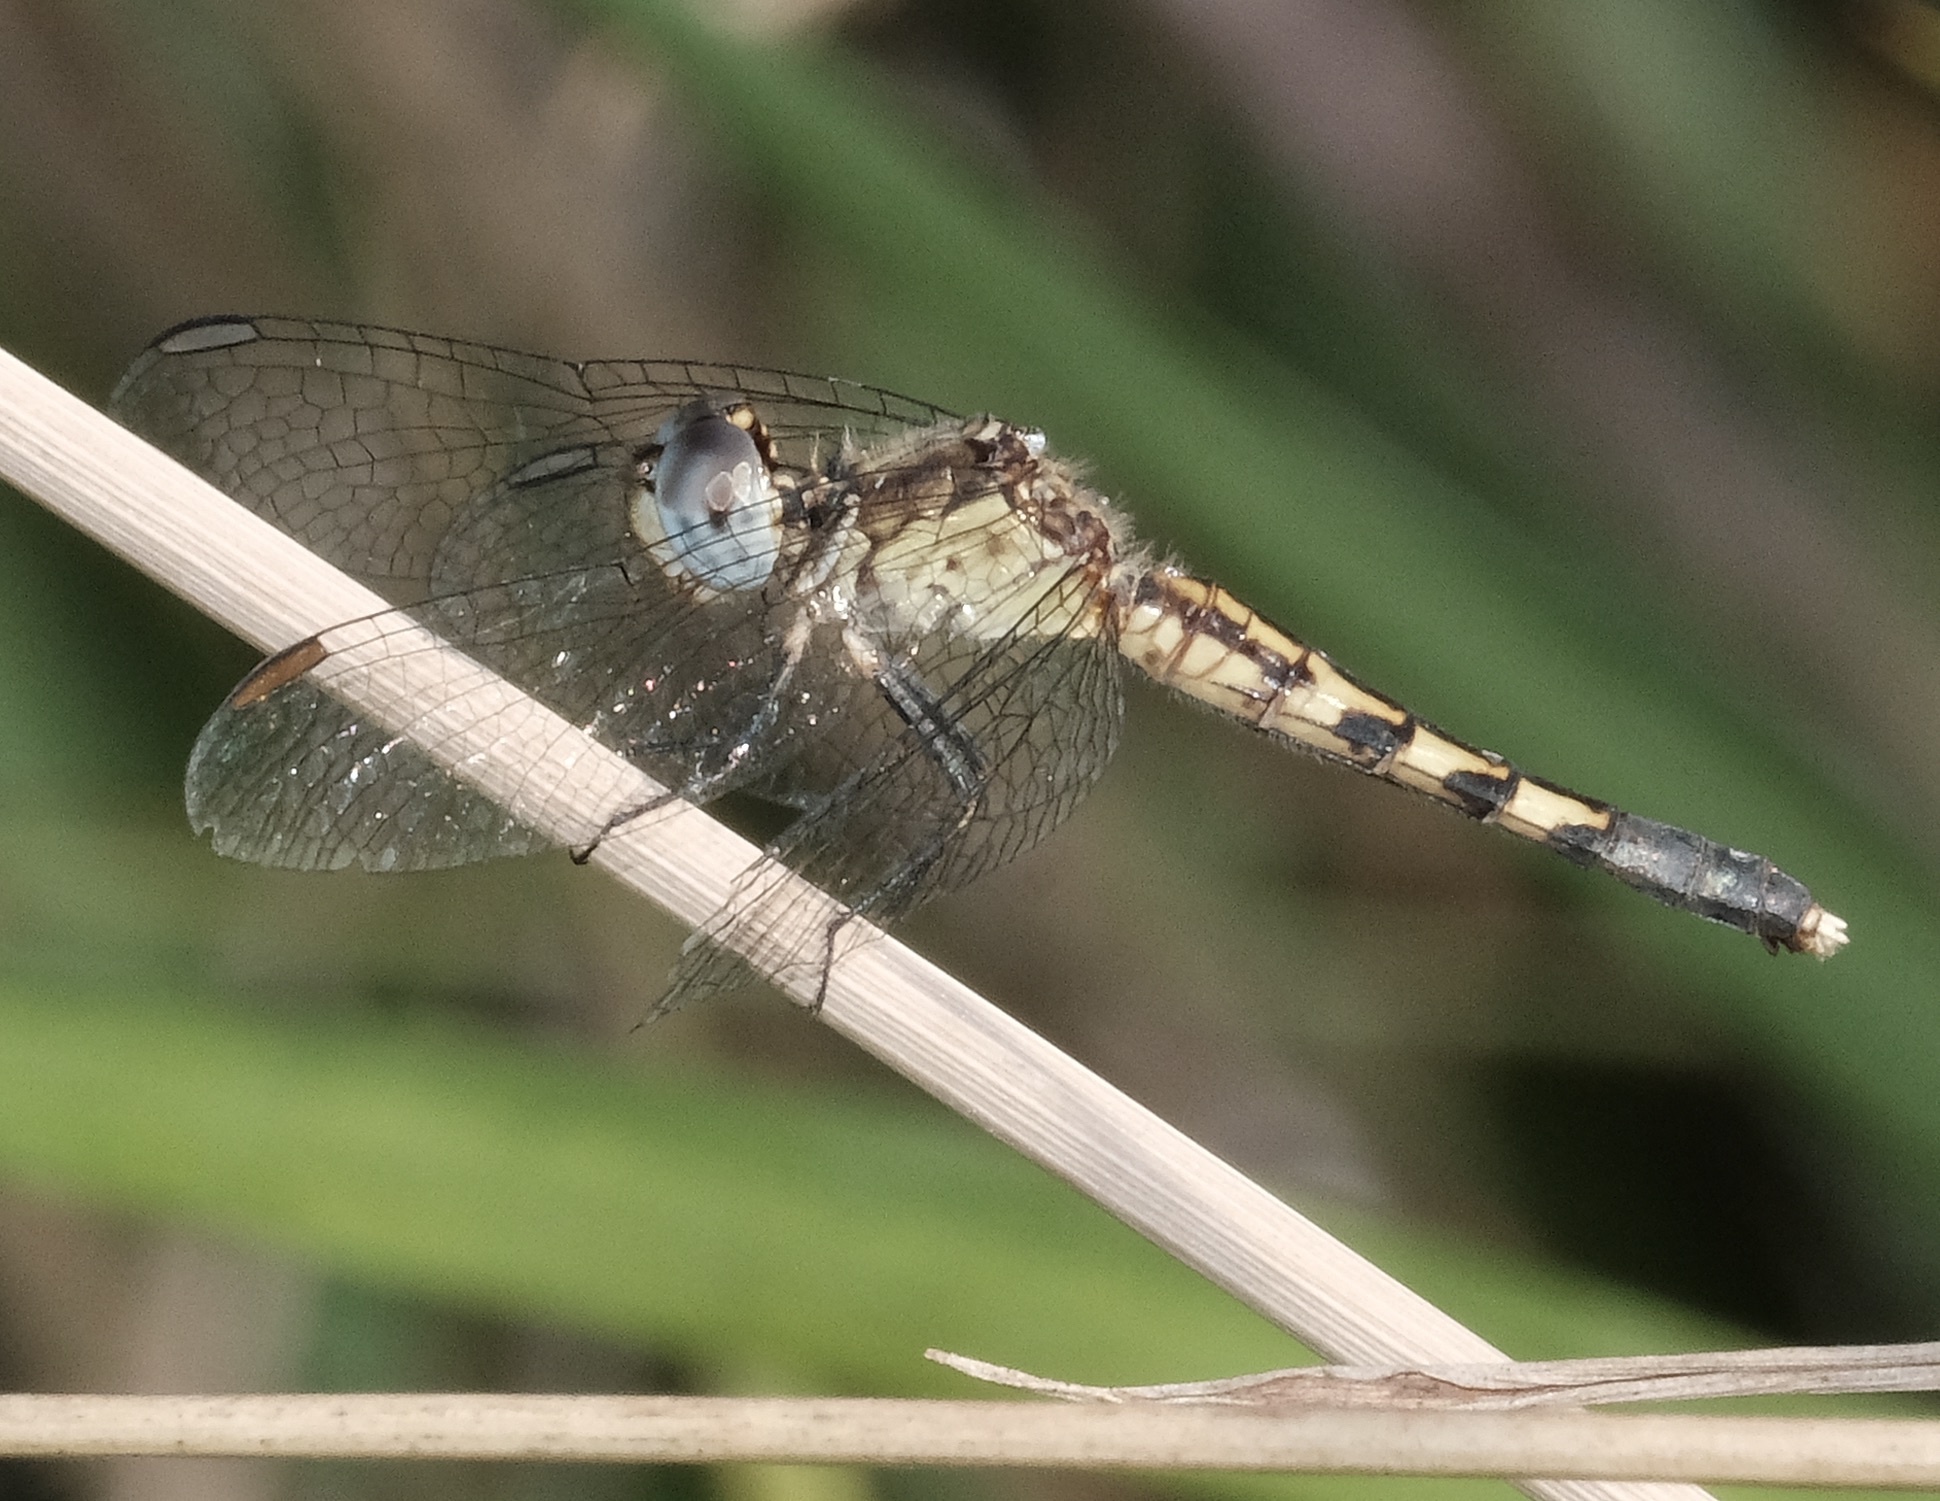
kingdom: Animalia
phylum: Arthropoda
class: Insecta
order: Odonata
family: Libellulidae
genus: Erythrodiplax
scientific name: Erythrodiplax minuscula
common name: Little blue dragonlet
